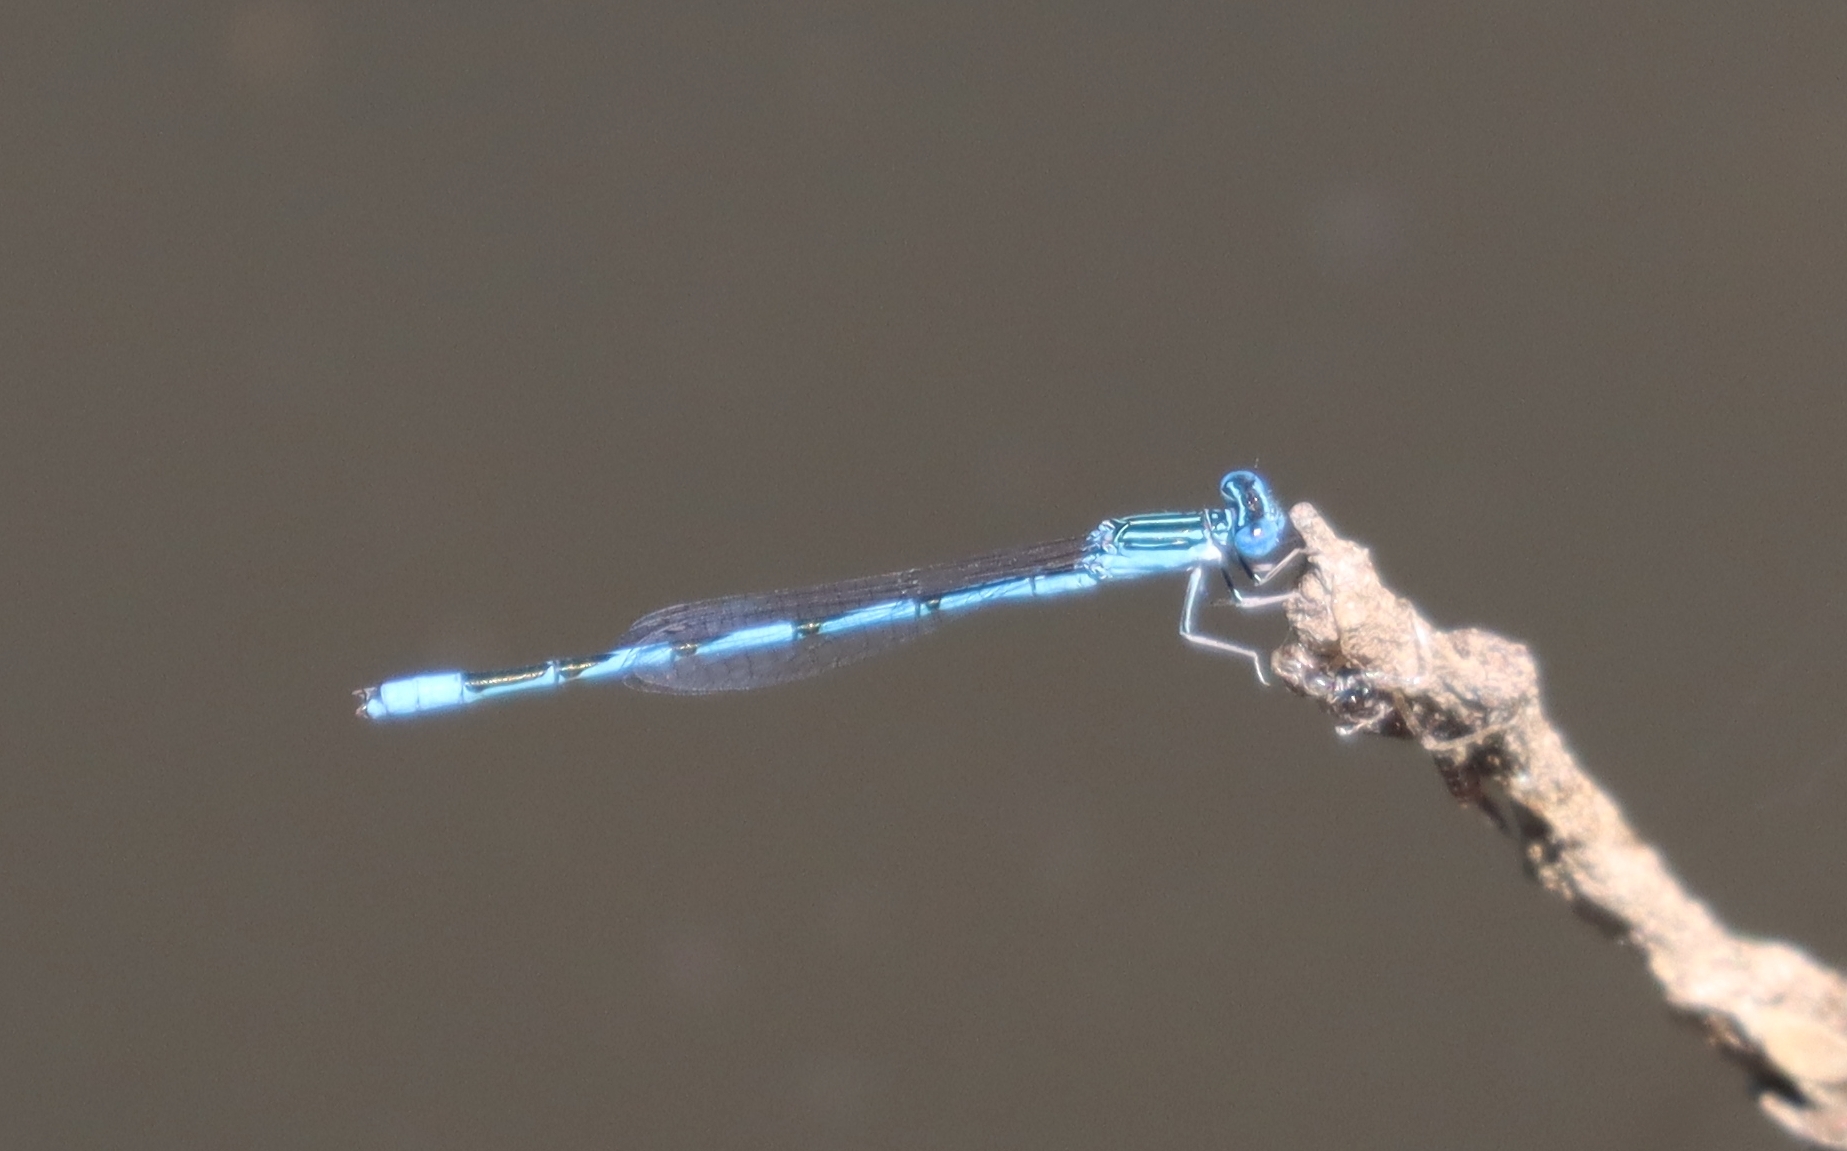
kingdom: Animalia
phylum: Arthropoda
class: Insecta
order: Odonata
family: Coenagrionidae
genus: Enallagma
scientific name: Enallagma basidens
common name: Double-striped bluet
